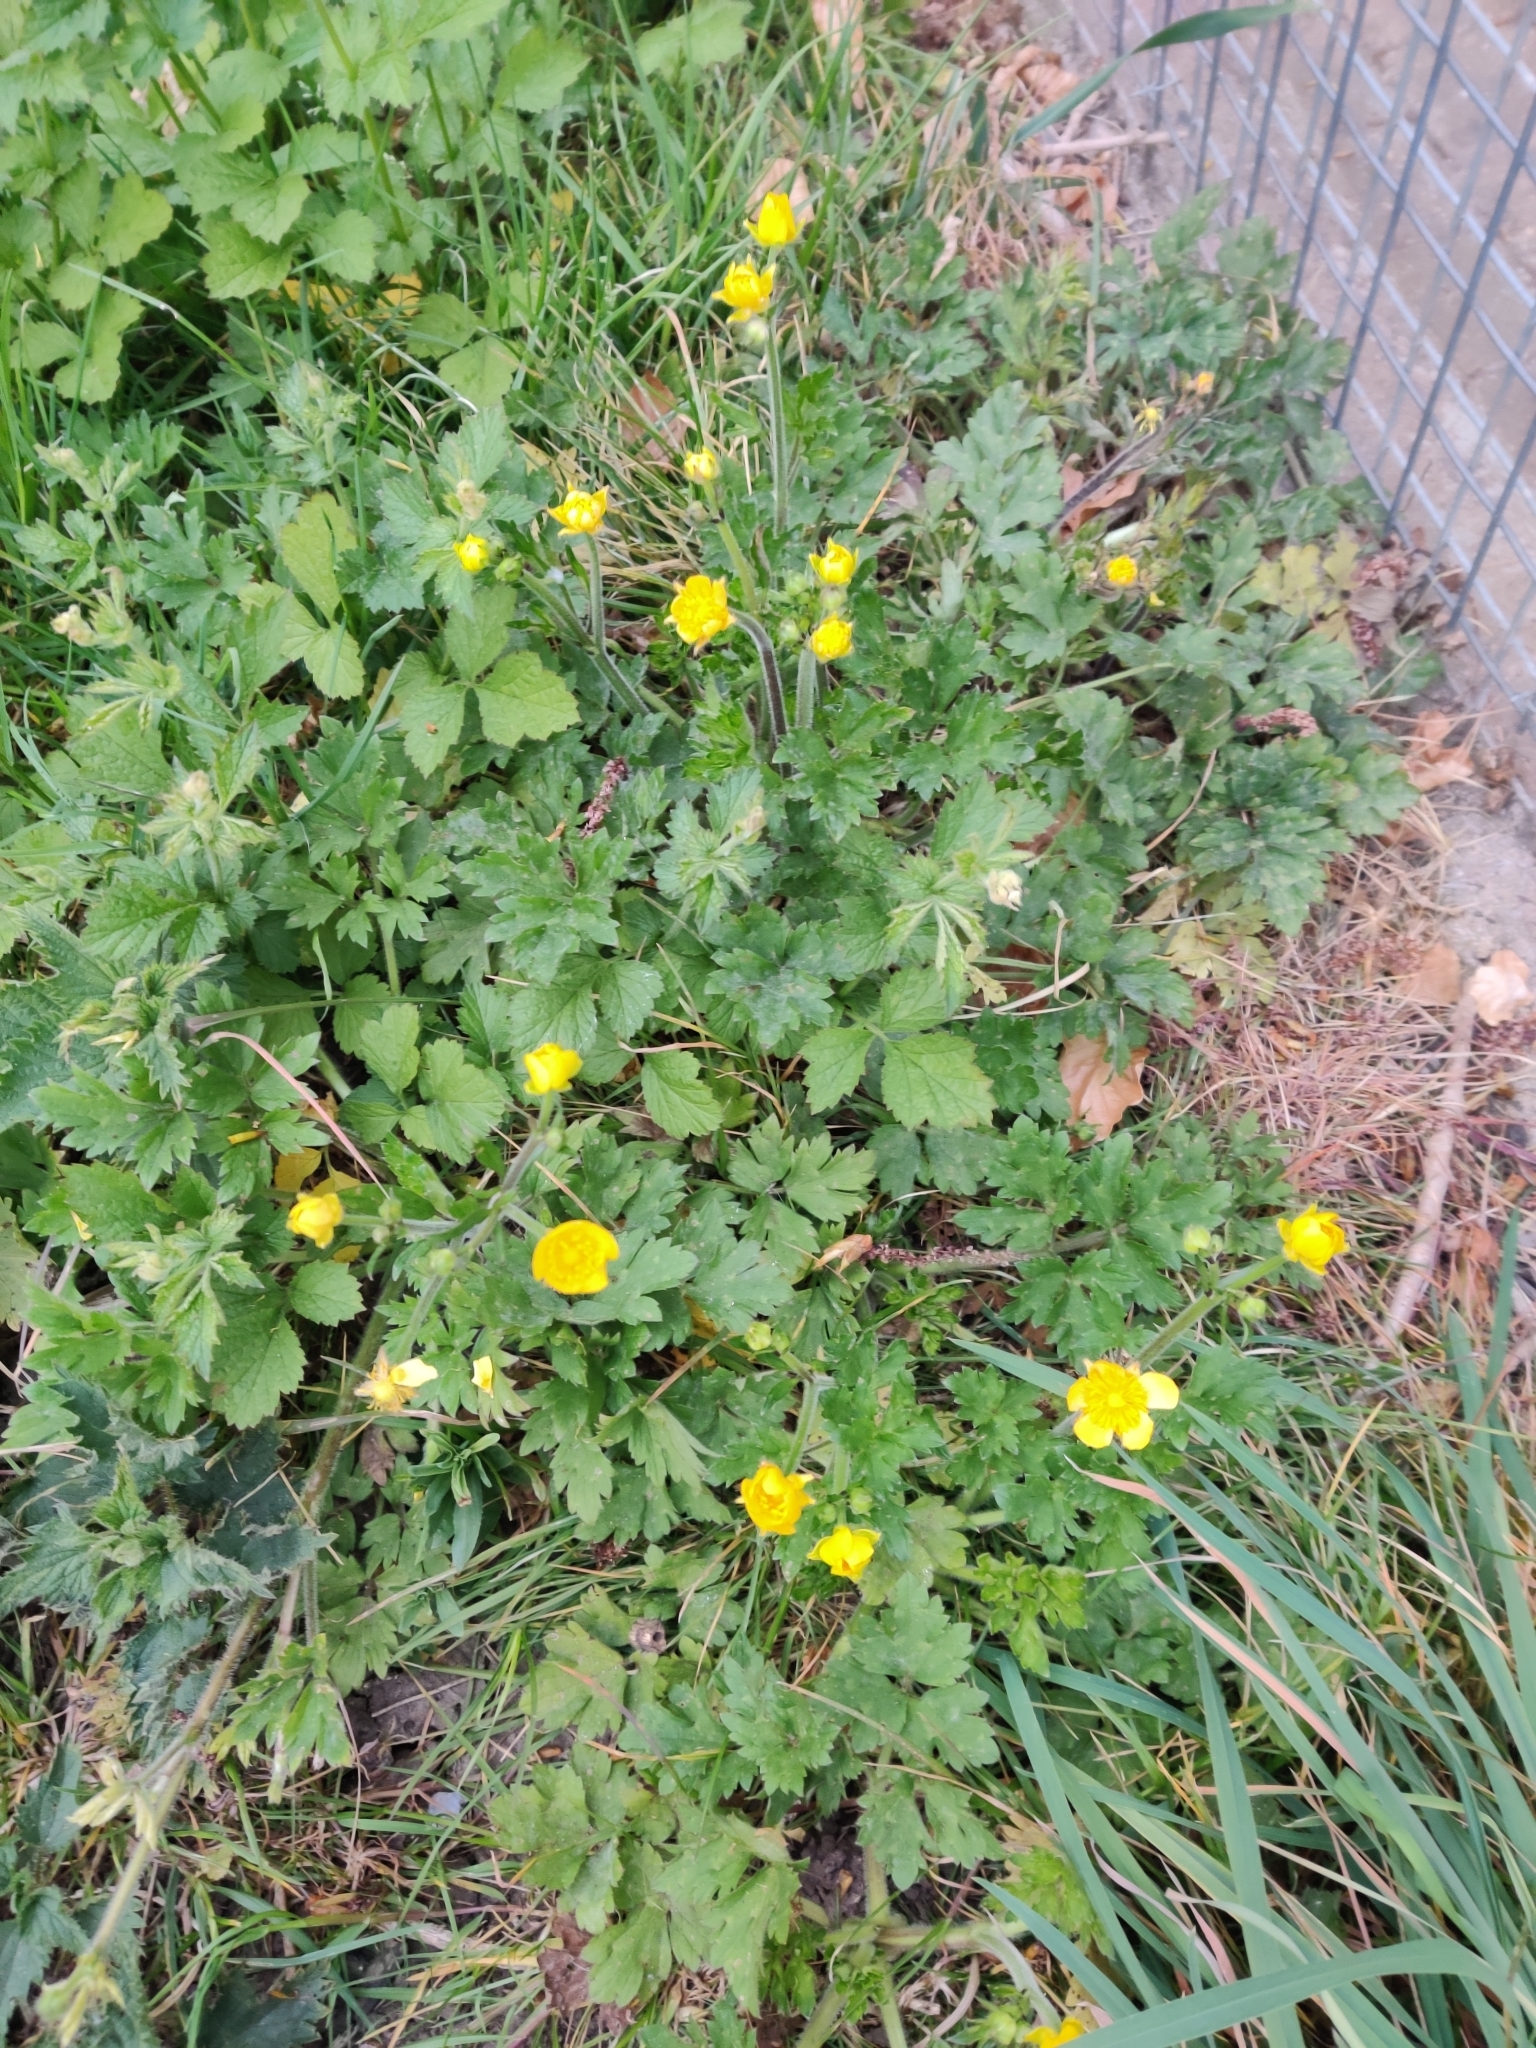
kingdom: Plantae
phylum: Tracheophyta
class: Magnoliopsida
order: Ranunculales
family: Ranunculaceae
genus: Ranunculus
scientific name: Ranunculus repens
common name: Creeping buttercup
